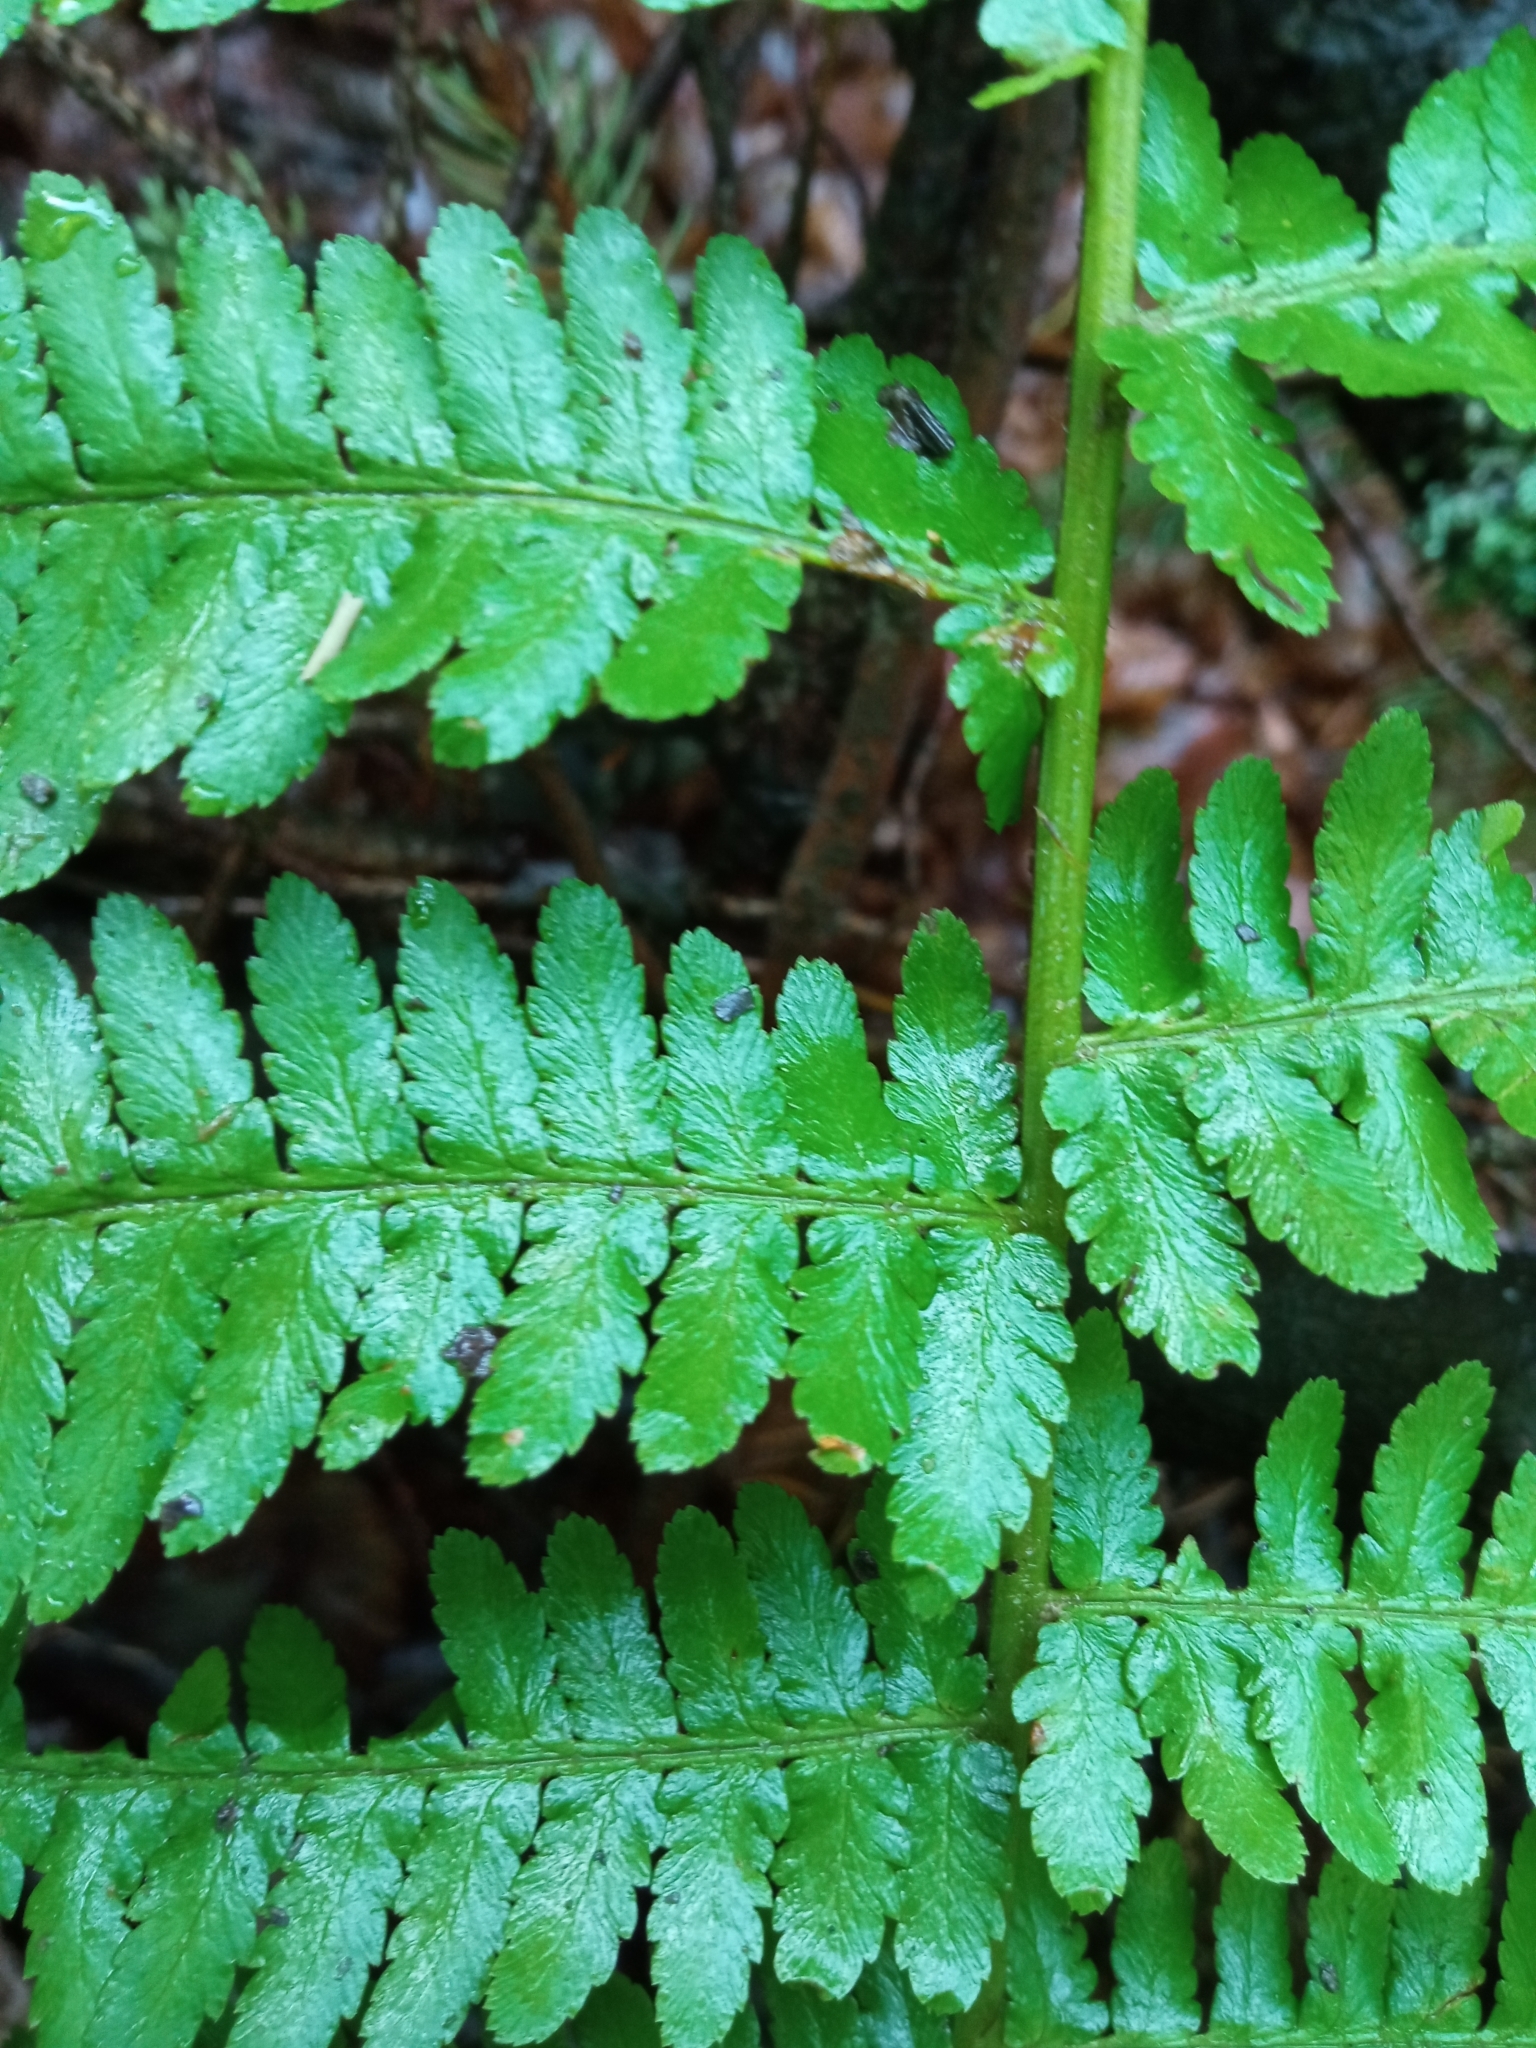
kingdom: Plantae
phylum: Tracheophyta
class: Polypodiopsida
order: Polypodiales
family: Dryopteridaceae
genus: Dryopteris
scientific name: Dryopteris filix-mas
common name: Male fern
